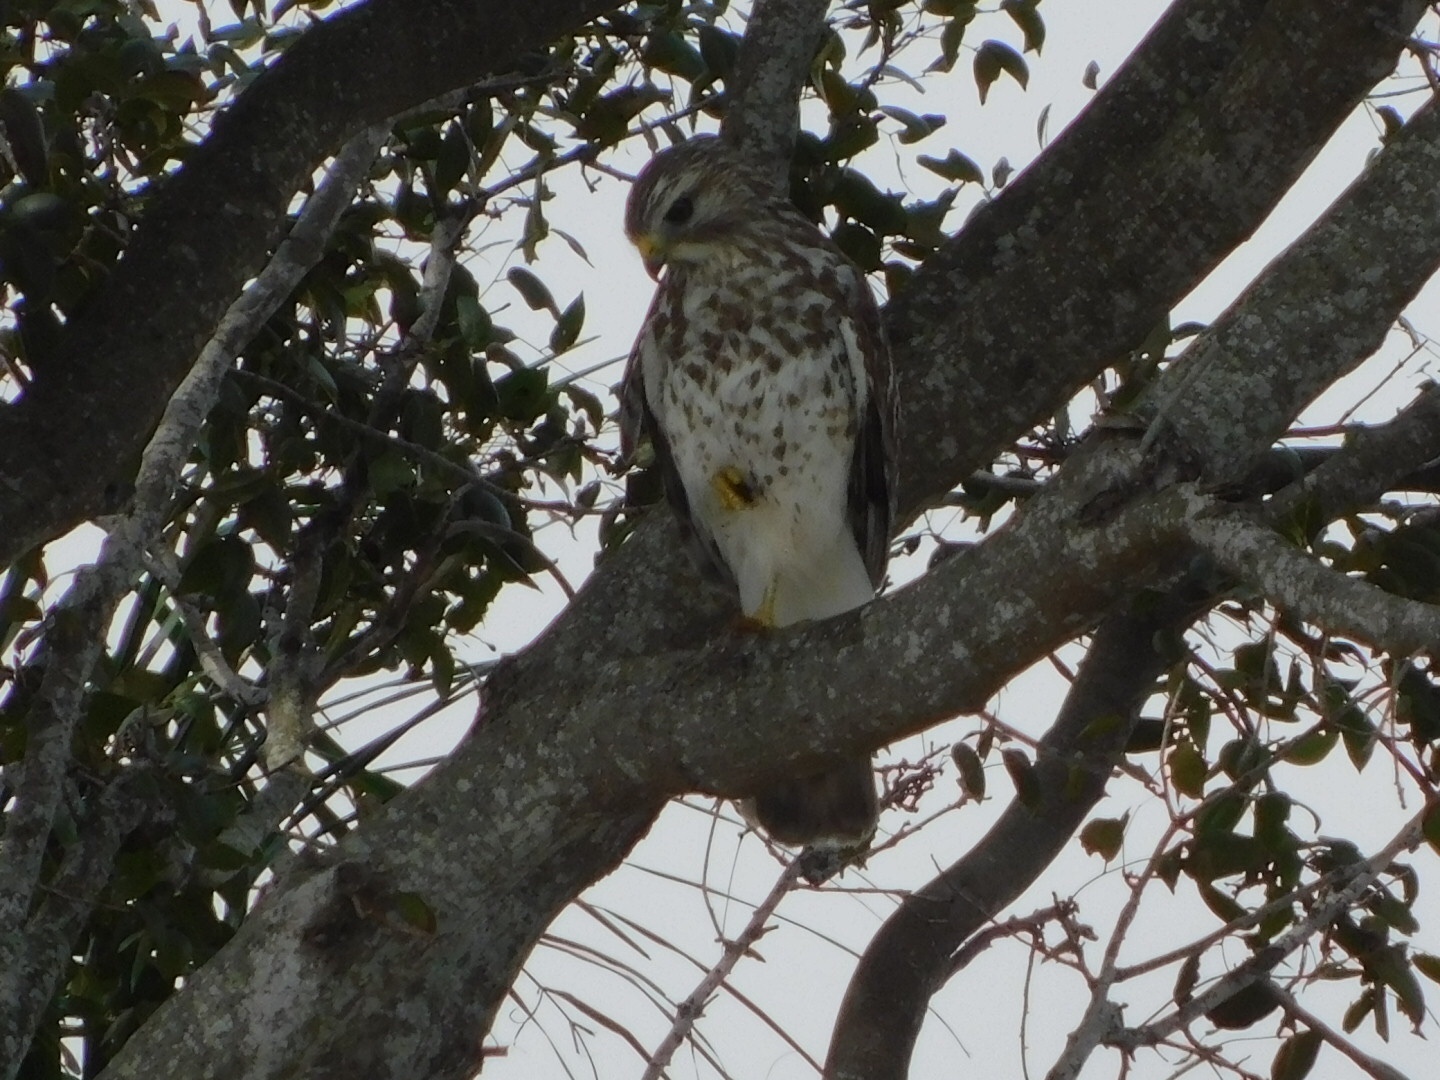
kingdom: Animalia
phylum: Chordata
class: Aves
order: Accipitriformes
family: Accipitridae
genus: Buteo
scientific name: Buteo lineatus
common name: Red-shouldered hawk
